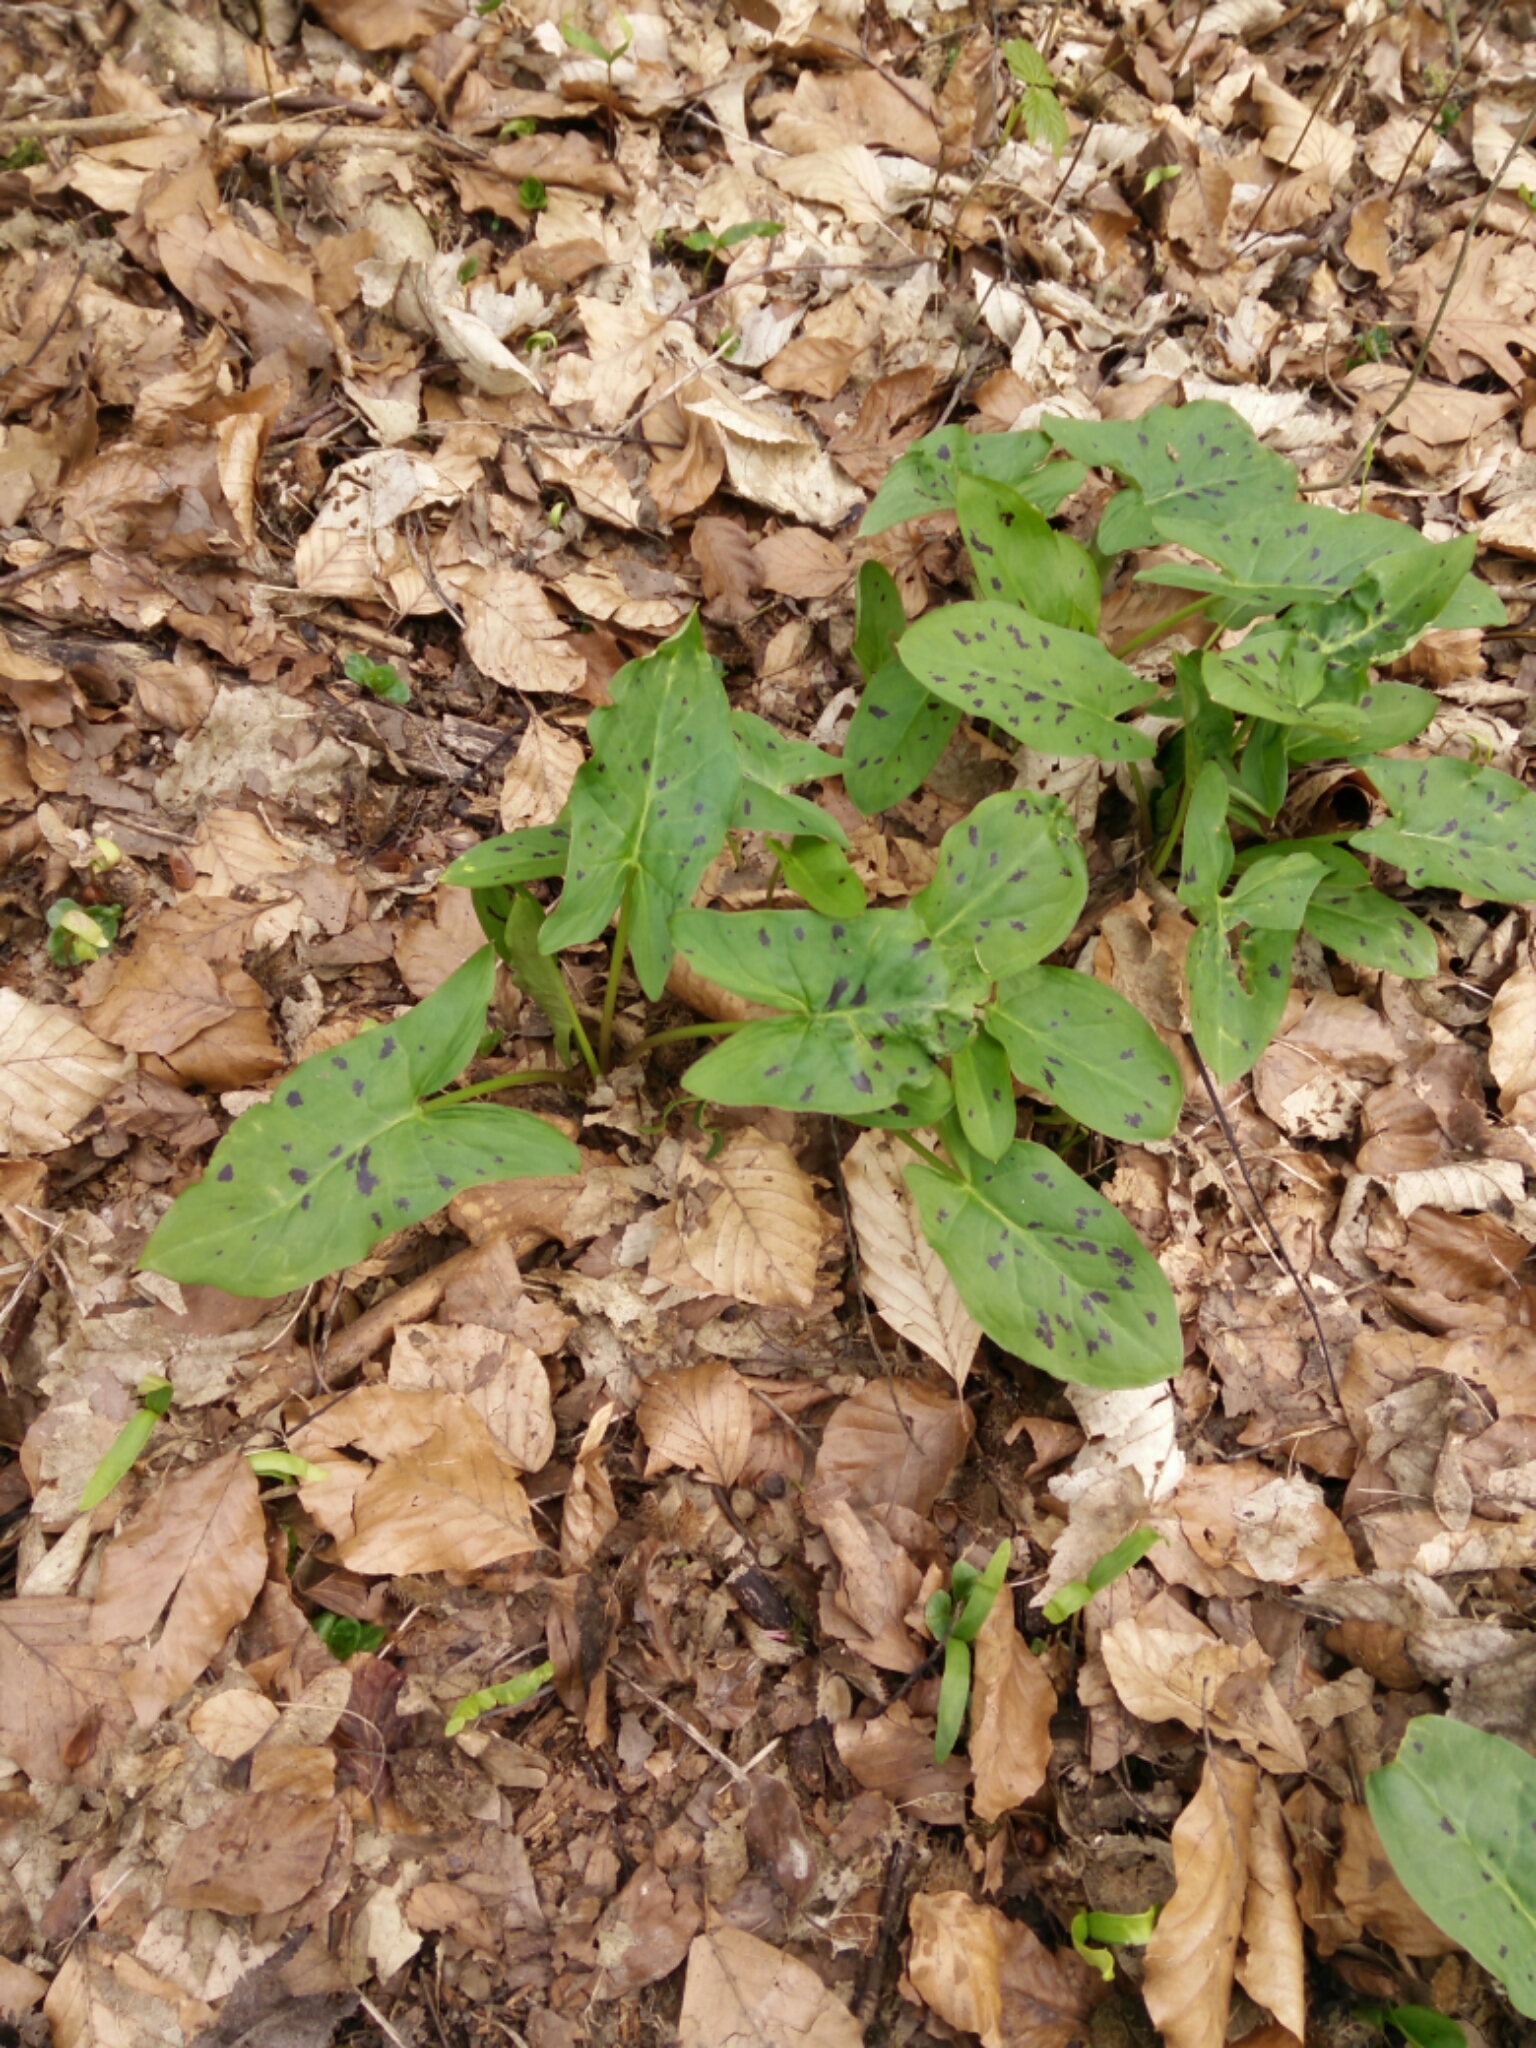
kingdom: Plantae
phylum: Tracheophyta
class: Liliopsida
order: Alismatales
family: Araceae
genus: Arum
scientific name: Arum maculatum
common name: Lords-and-ladies
